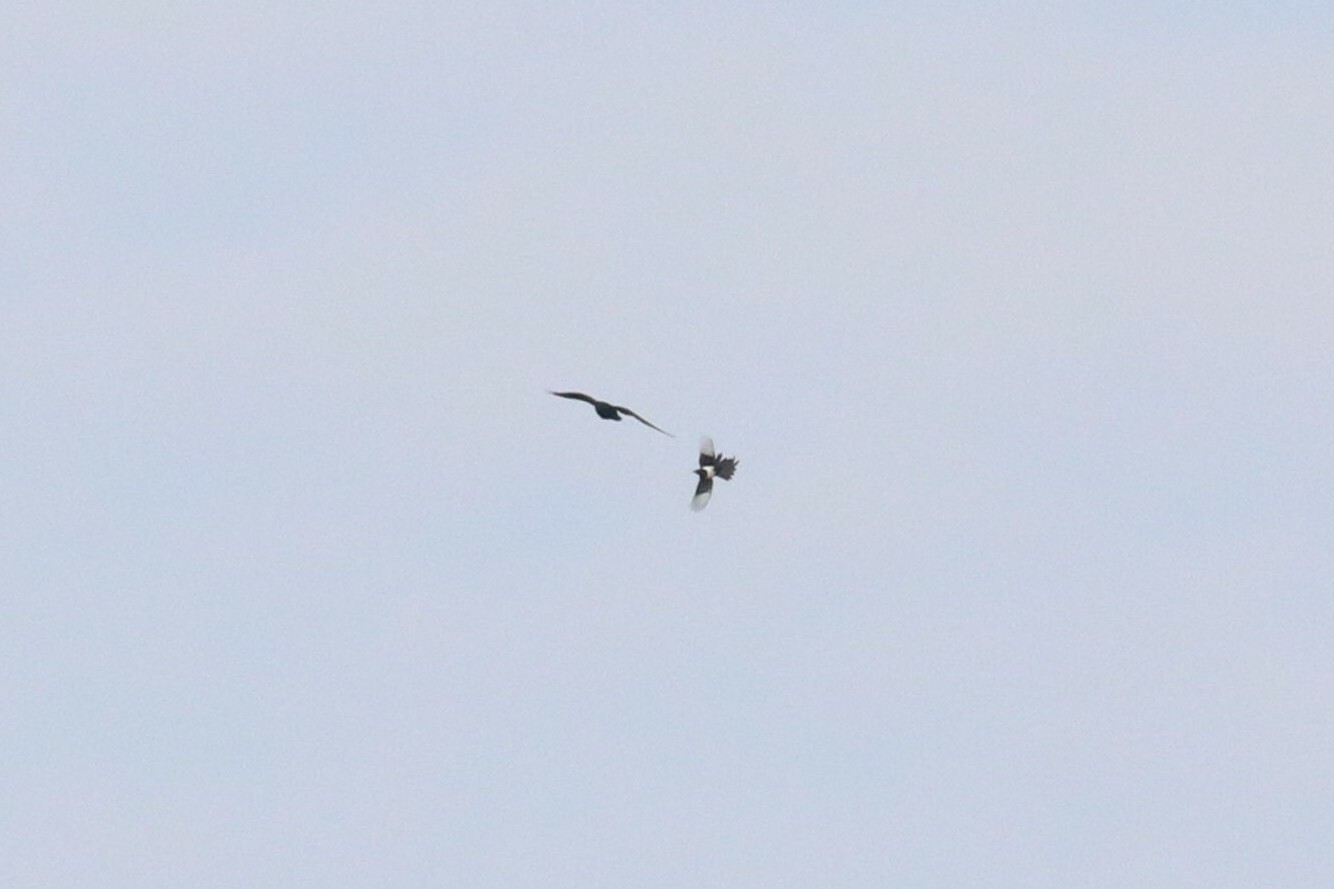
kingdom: Animalia
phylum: Chordata
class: Aves
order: Passeriformes
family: Corvidae
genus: Pica
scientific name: Pica pica
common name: Eurasian magpie
